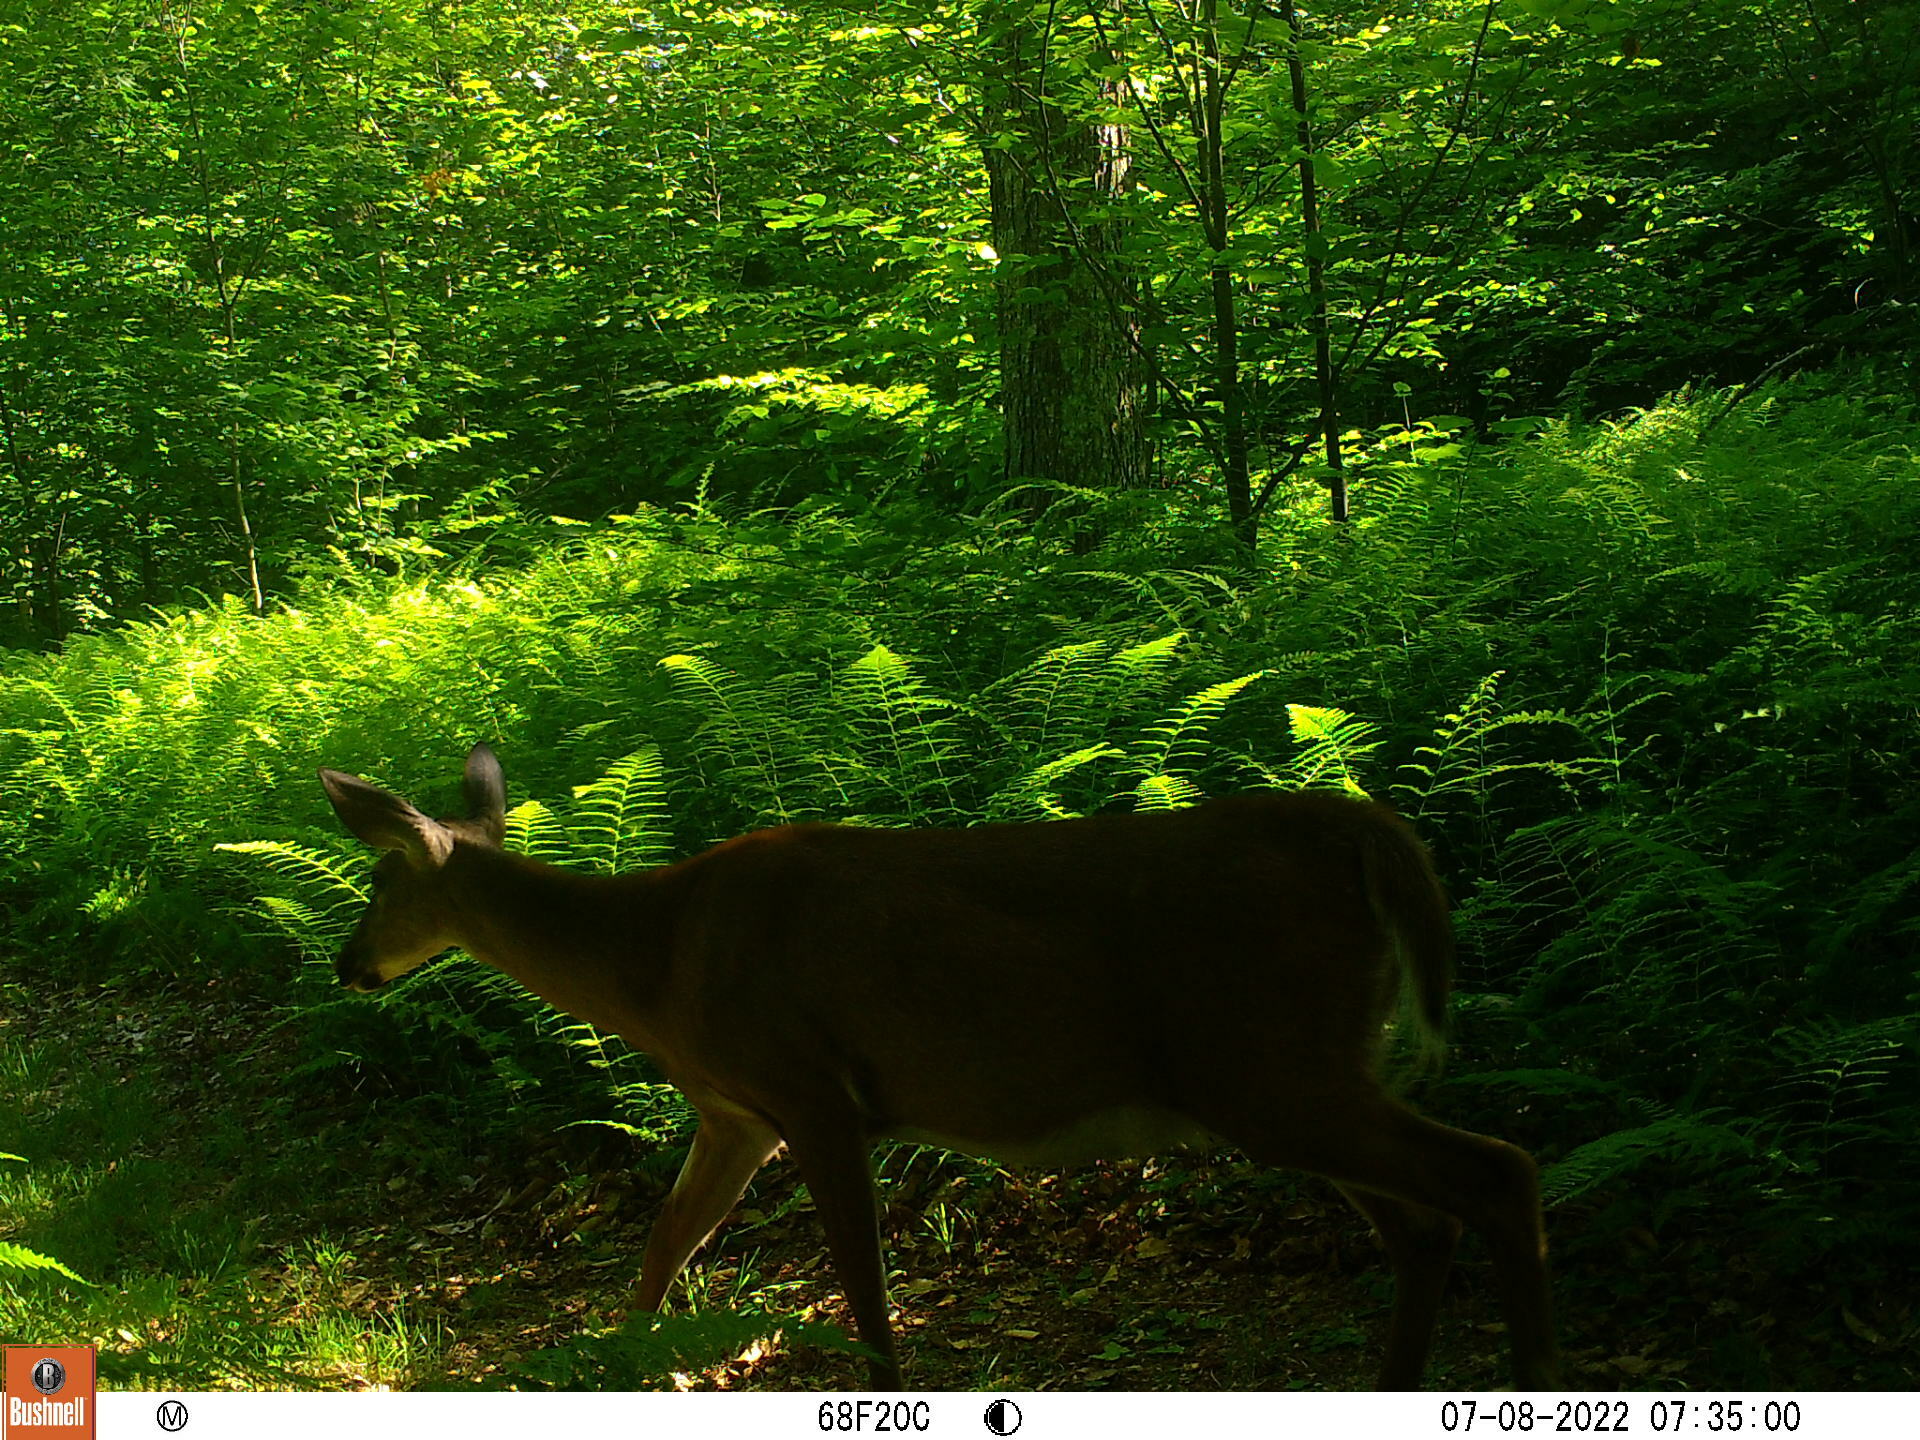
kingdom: Animalia
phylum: Chordata
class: Mammalia
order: Artiodactyla
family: Cervidae
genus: Odocoileus
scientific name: Odocoileus virginianus
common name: White-tailed deer
